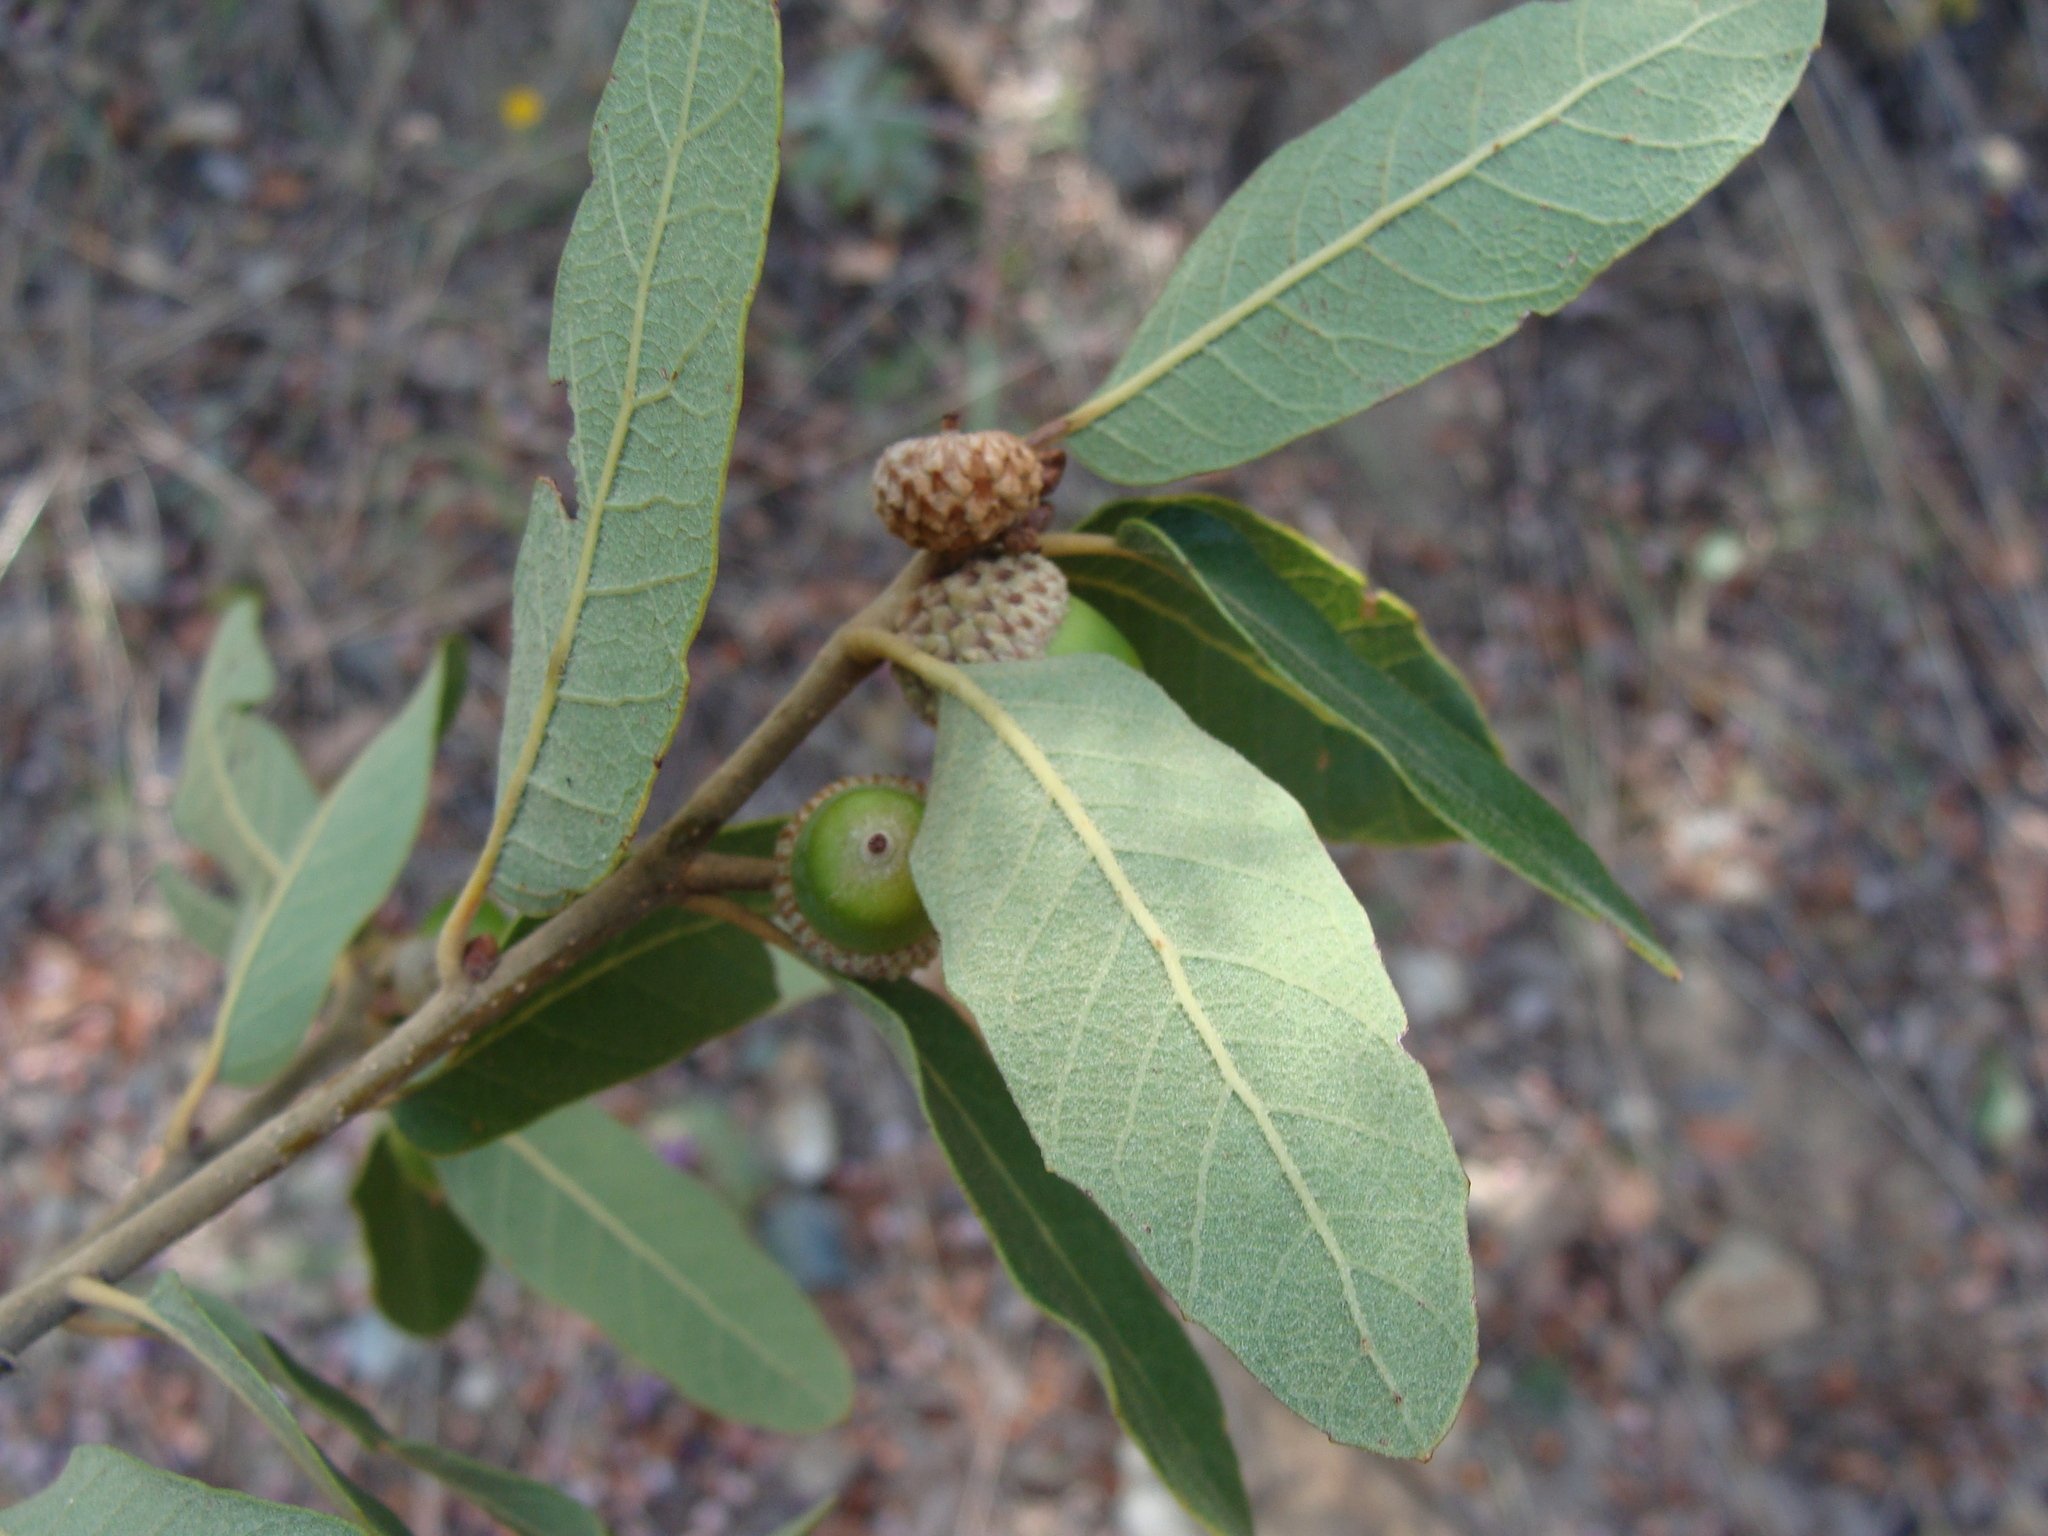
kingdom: Plantae
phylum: Tracheophyta
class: Magnoliopsida
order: Fagales
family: Fagaceae
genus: Quercus
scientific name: Quercus arizonica
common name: Arizona white oak
